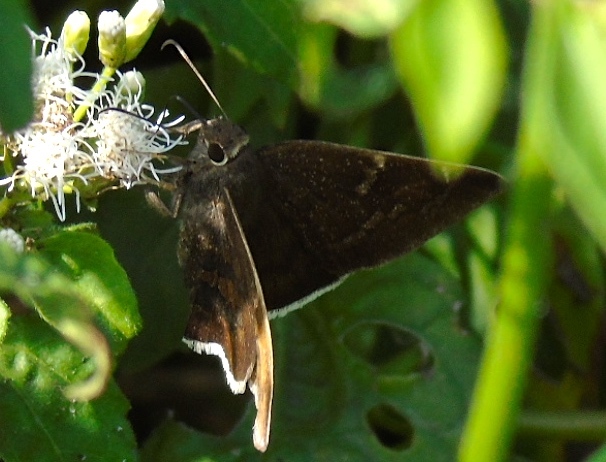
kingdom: Animalia
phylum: Arthropoda
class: Insecta
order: Lepidoptera
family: Hesperiidae
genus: Achalarus
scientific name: Achalarus
